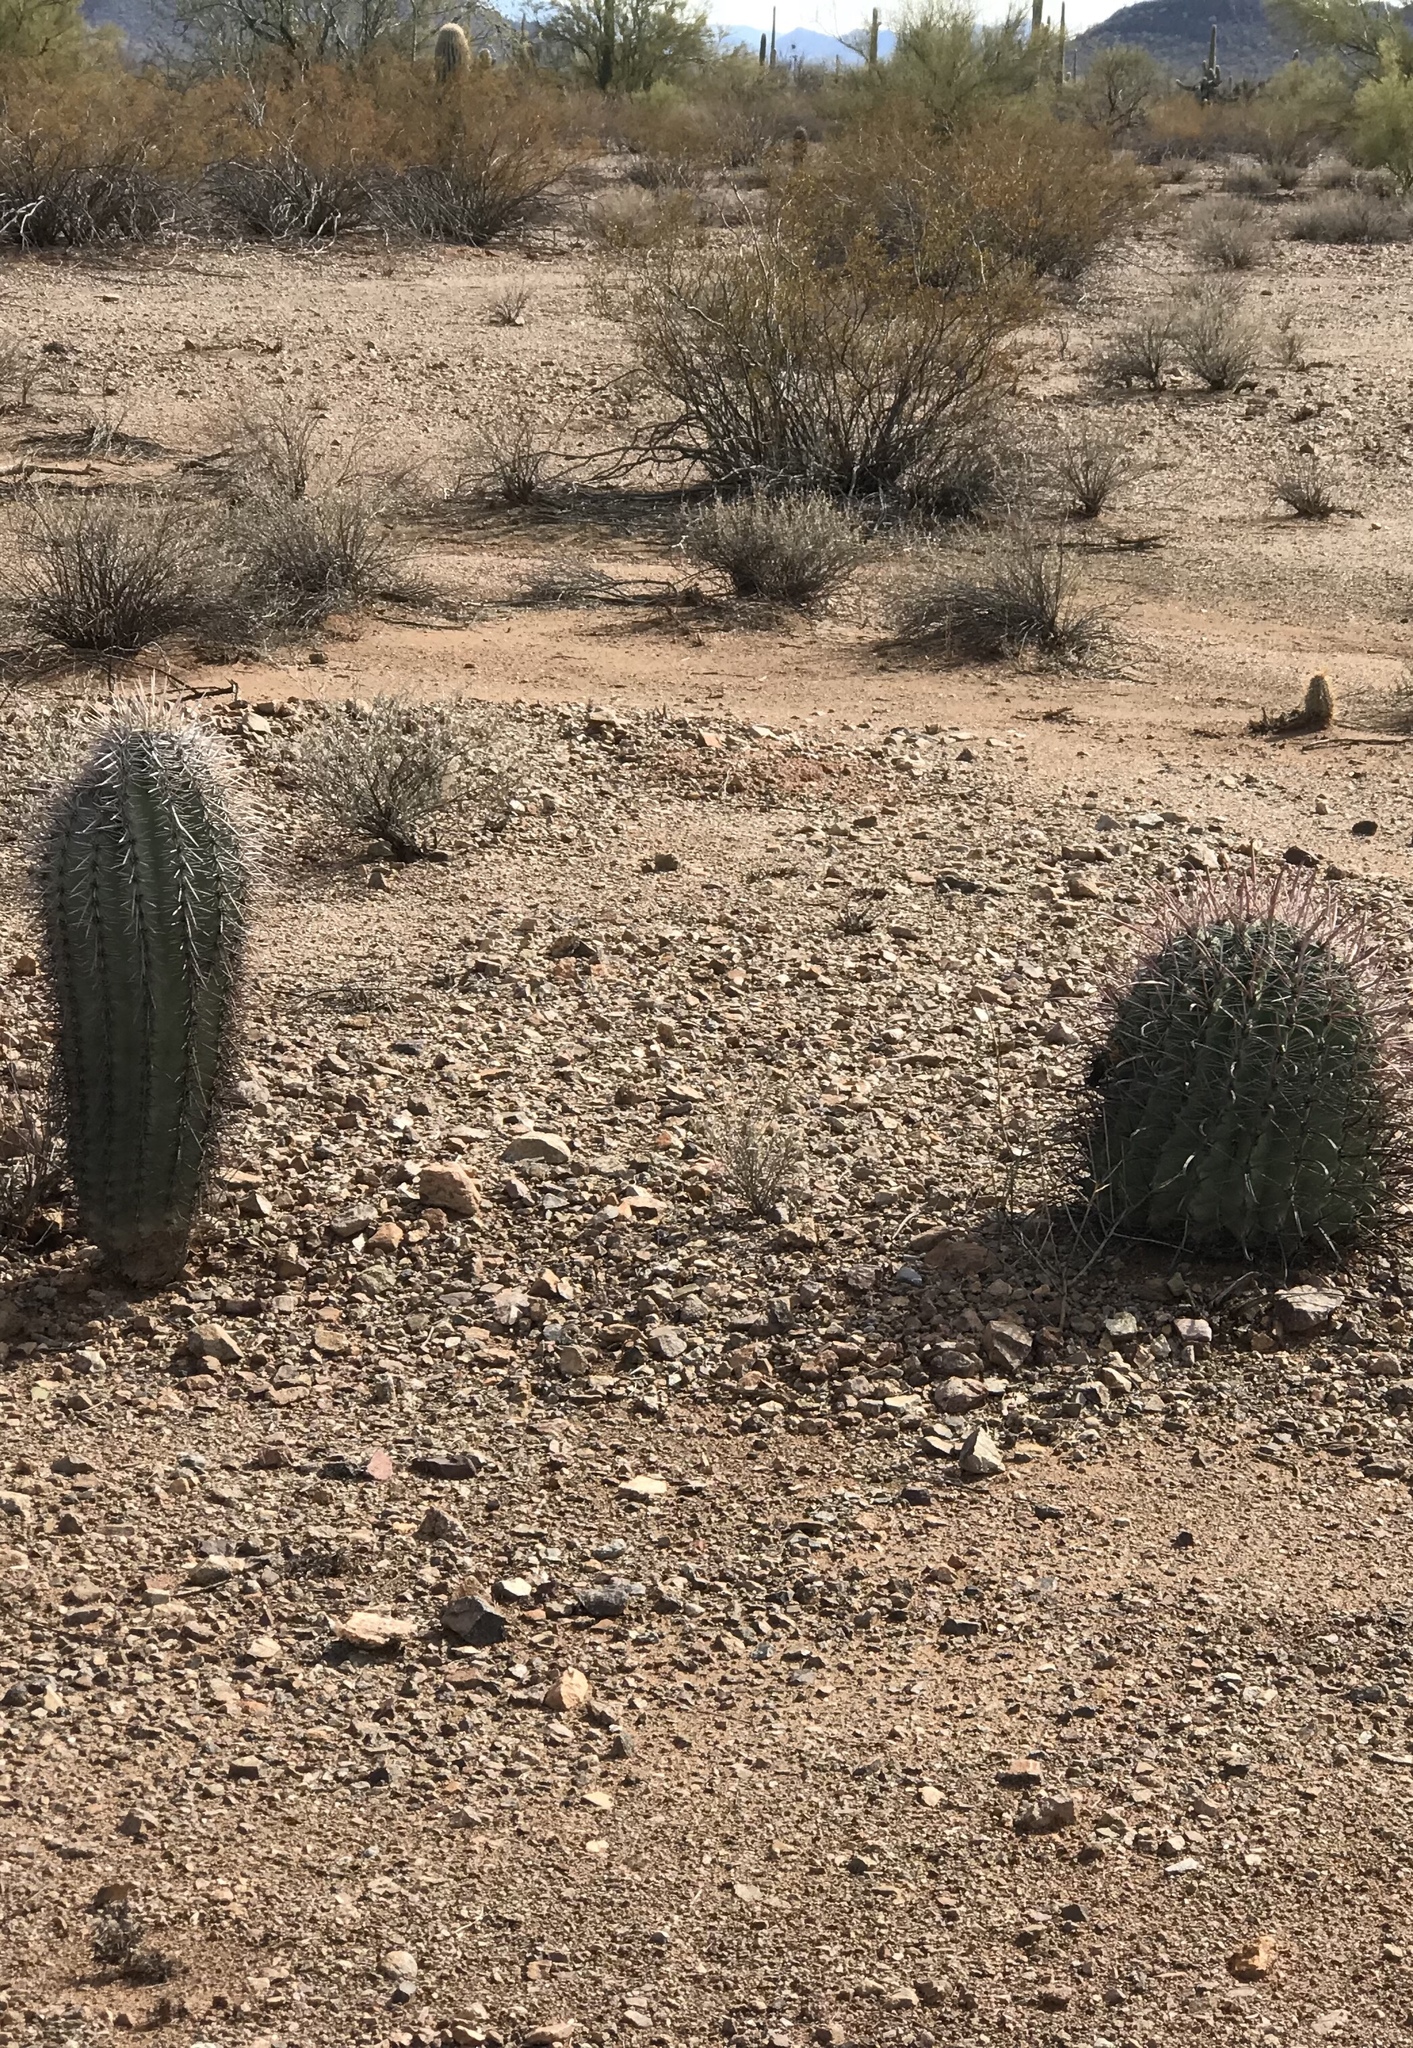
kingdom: Plantae
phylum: Tracheophyta
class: Magnoliopsida
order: Caryophyllales
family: Cactaceae
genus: Carnegiea
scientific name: Carnegiea gigantea
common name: Saguaro
